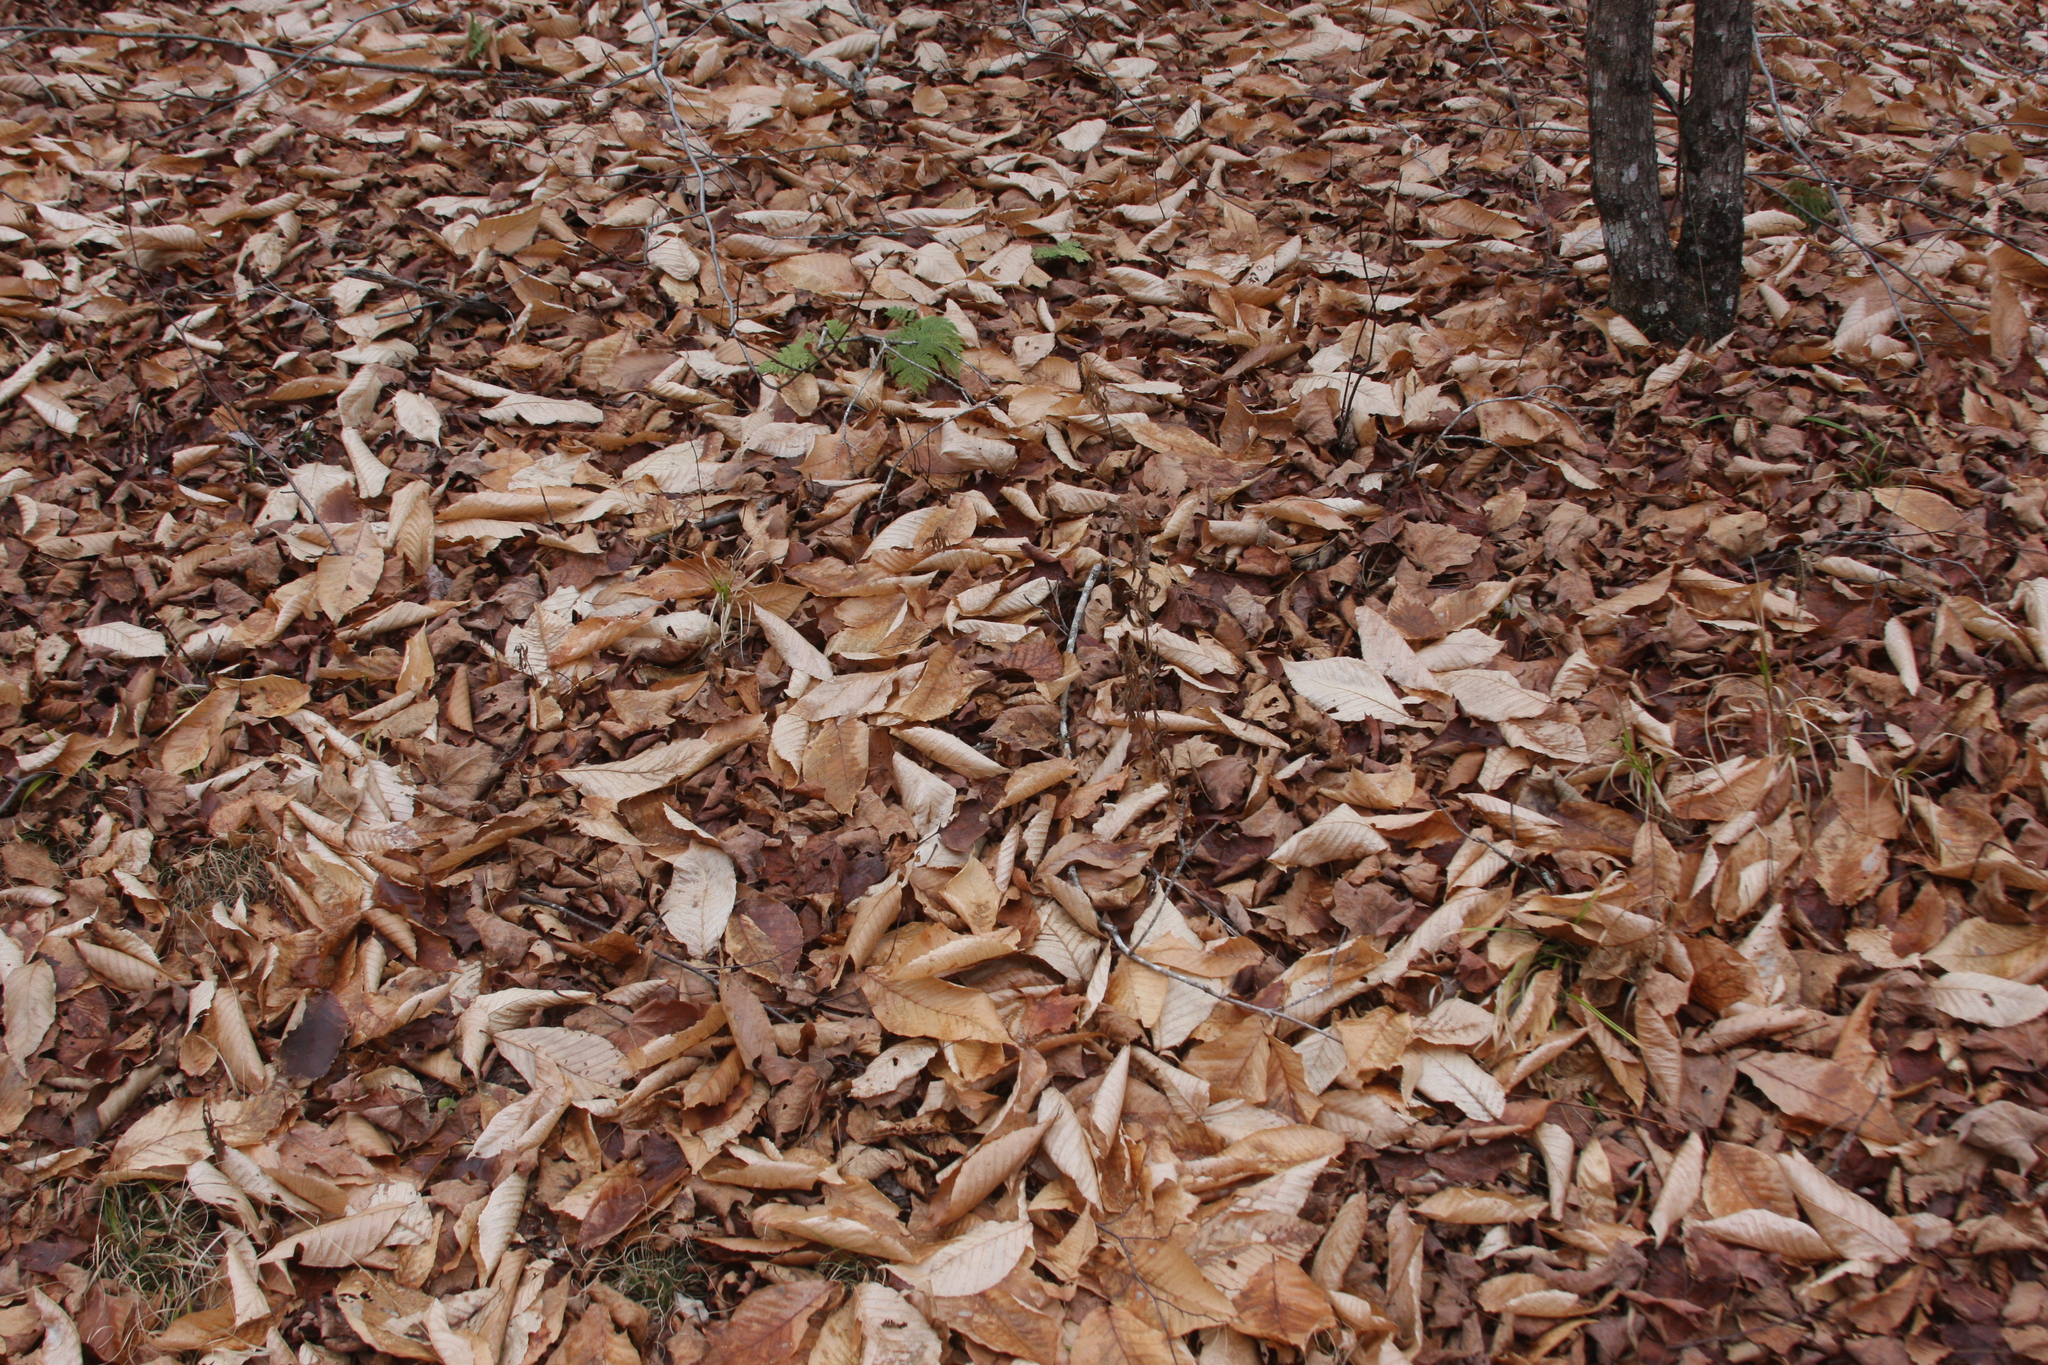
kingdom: Plantae
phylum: Tracheophyta
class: Magnoliopsida
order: Fagales
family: Fagaceae
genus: Fagus
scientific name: Fagus grandifolia
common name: American beech
